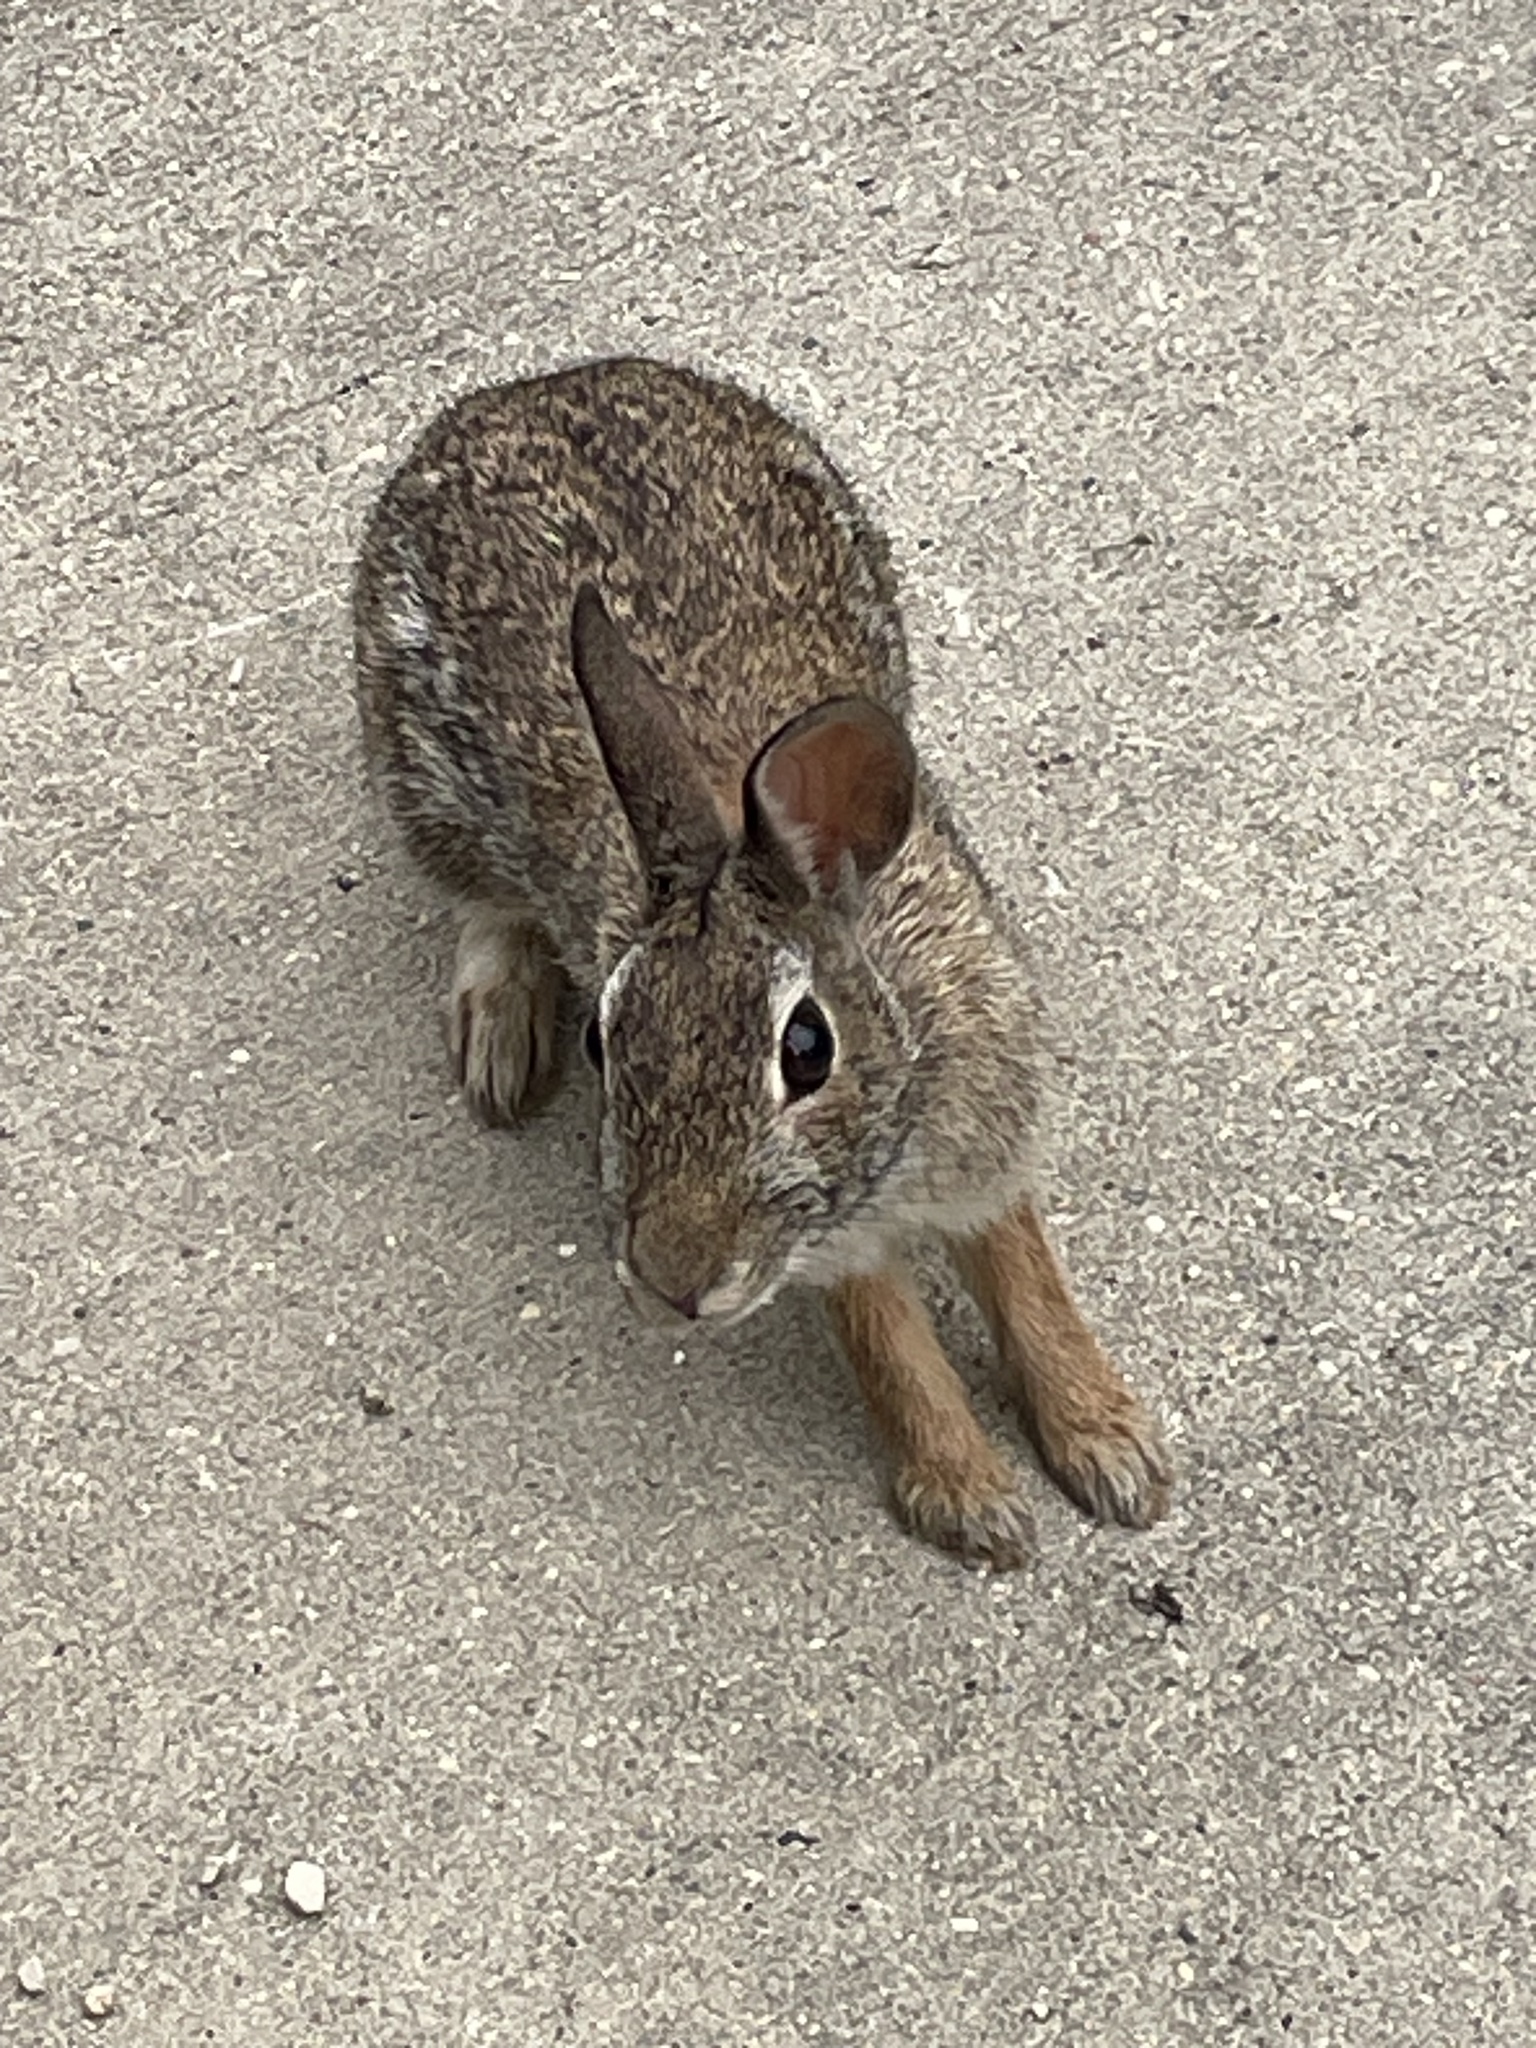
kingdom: Animalia
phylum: Chordata
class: Mammalia
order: Lagomorpha
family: Leporidae
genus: Sylvilagus
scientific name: Sylvilagus floridanus
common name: Eastern cottontail
